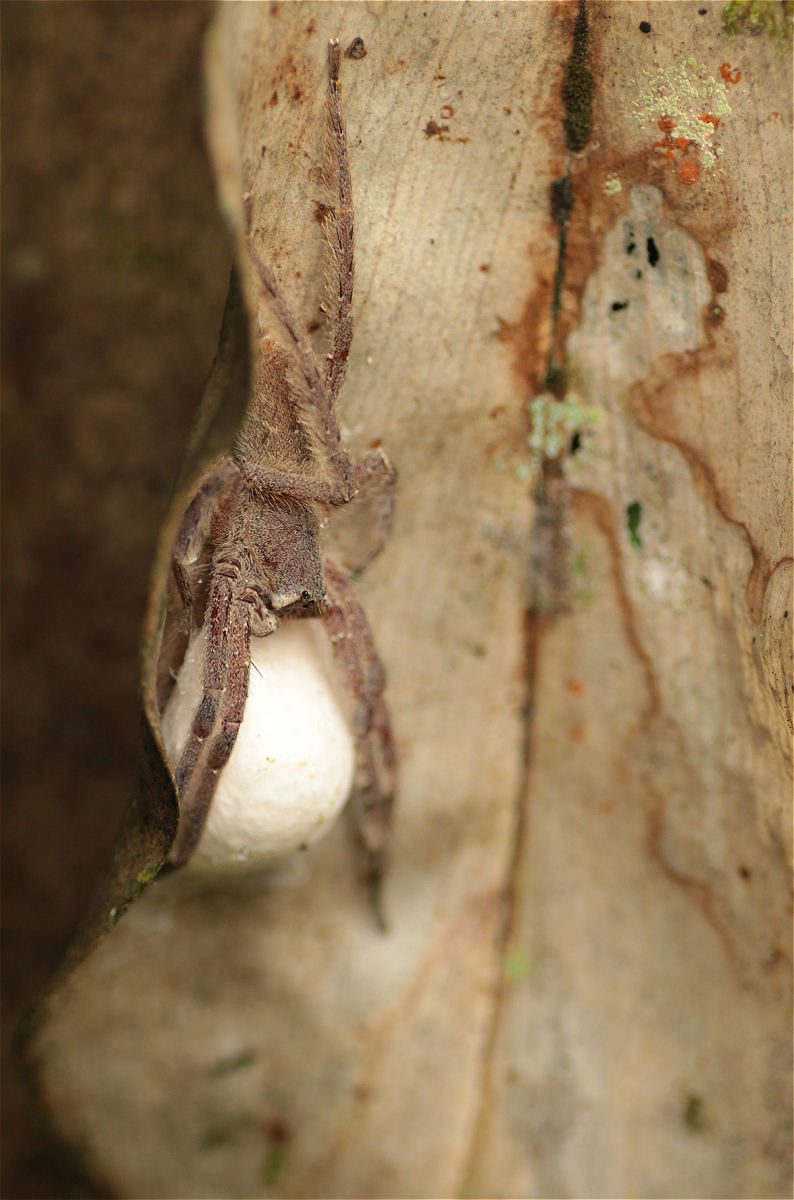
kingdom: Animalia
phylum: Arthropoda
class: Arachnida
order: Araneae
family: Ctenidae
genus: Phoneutria
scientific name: Phoneutria boliviensis
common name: Wandering spiders
